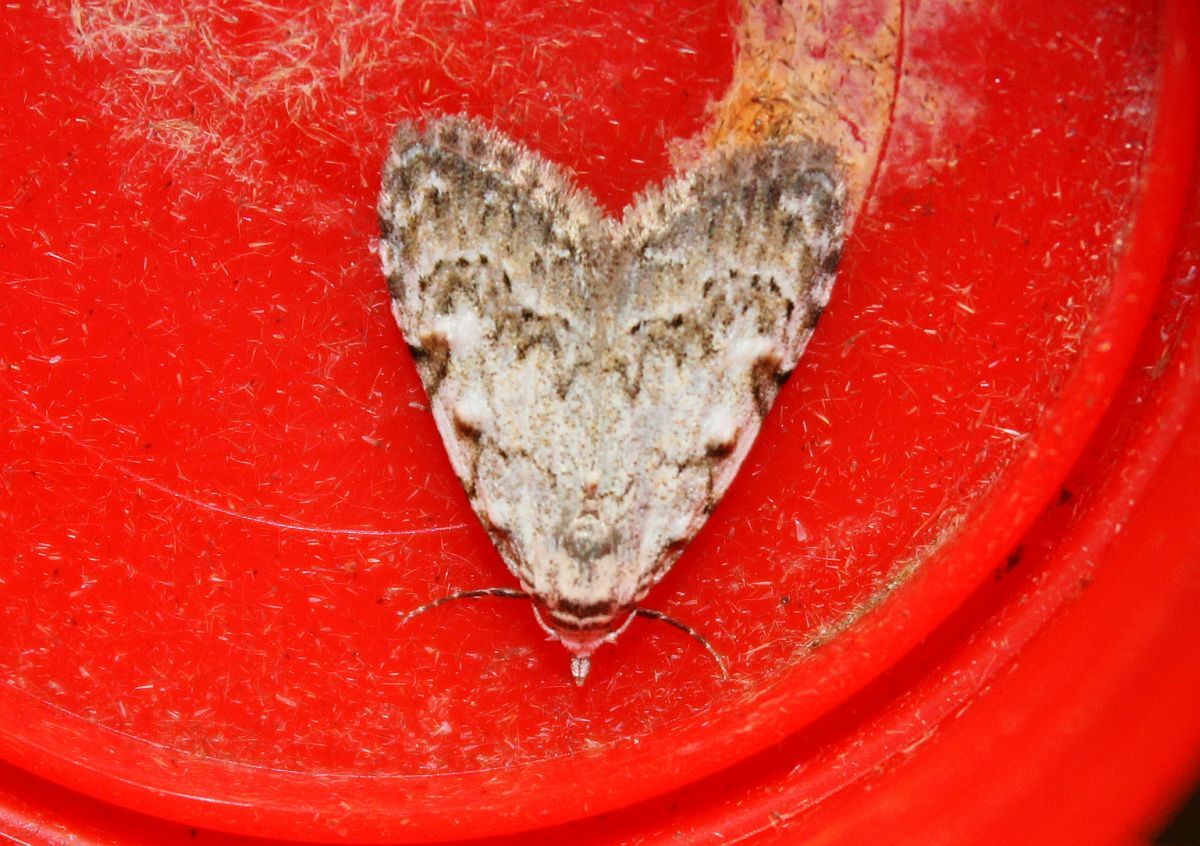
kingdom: Animalia
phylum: Arthropoda
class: Insecta
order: Lepidoptera
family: Nolidae
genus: Nola
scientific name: Nola confusalis
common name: Least black arches
